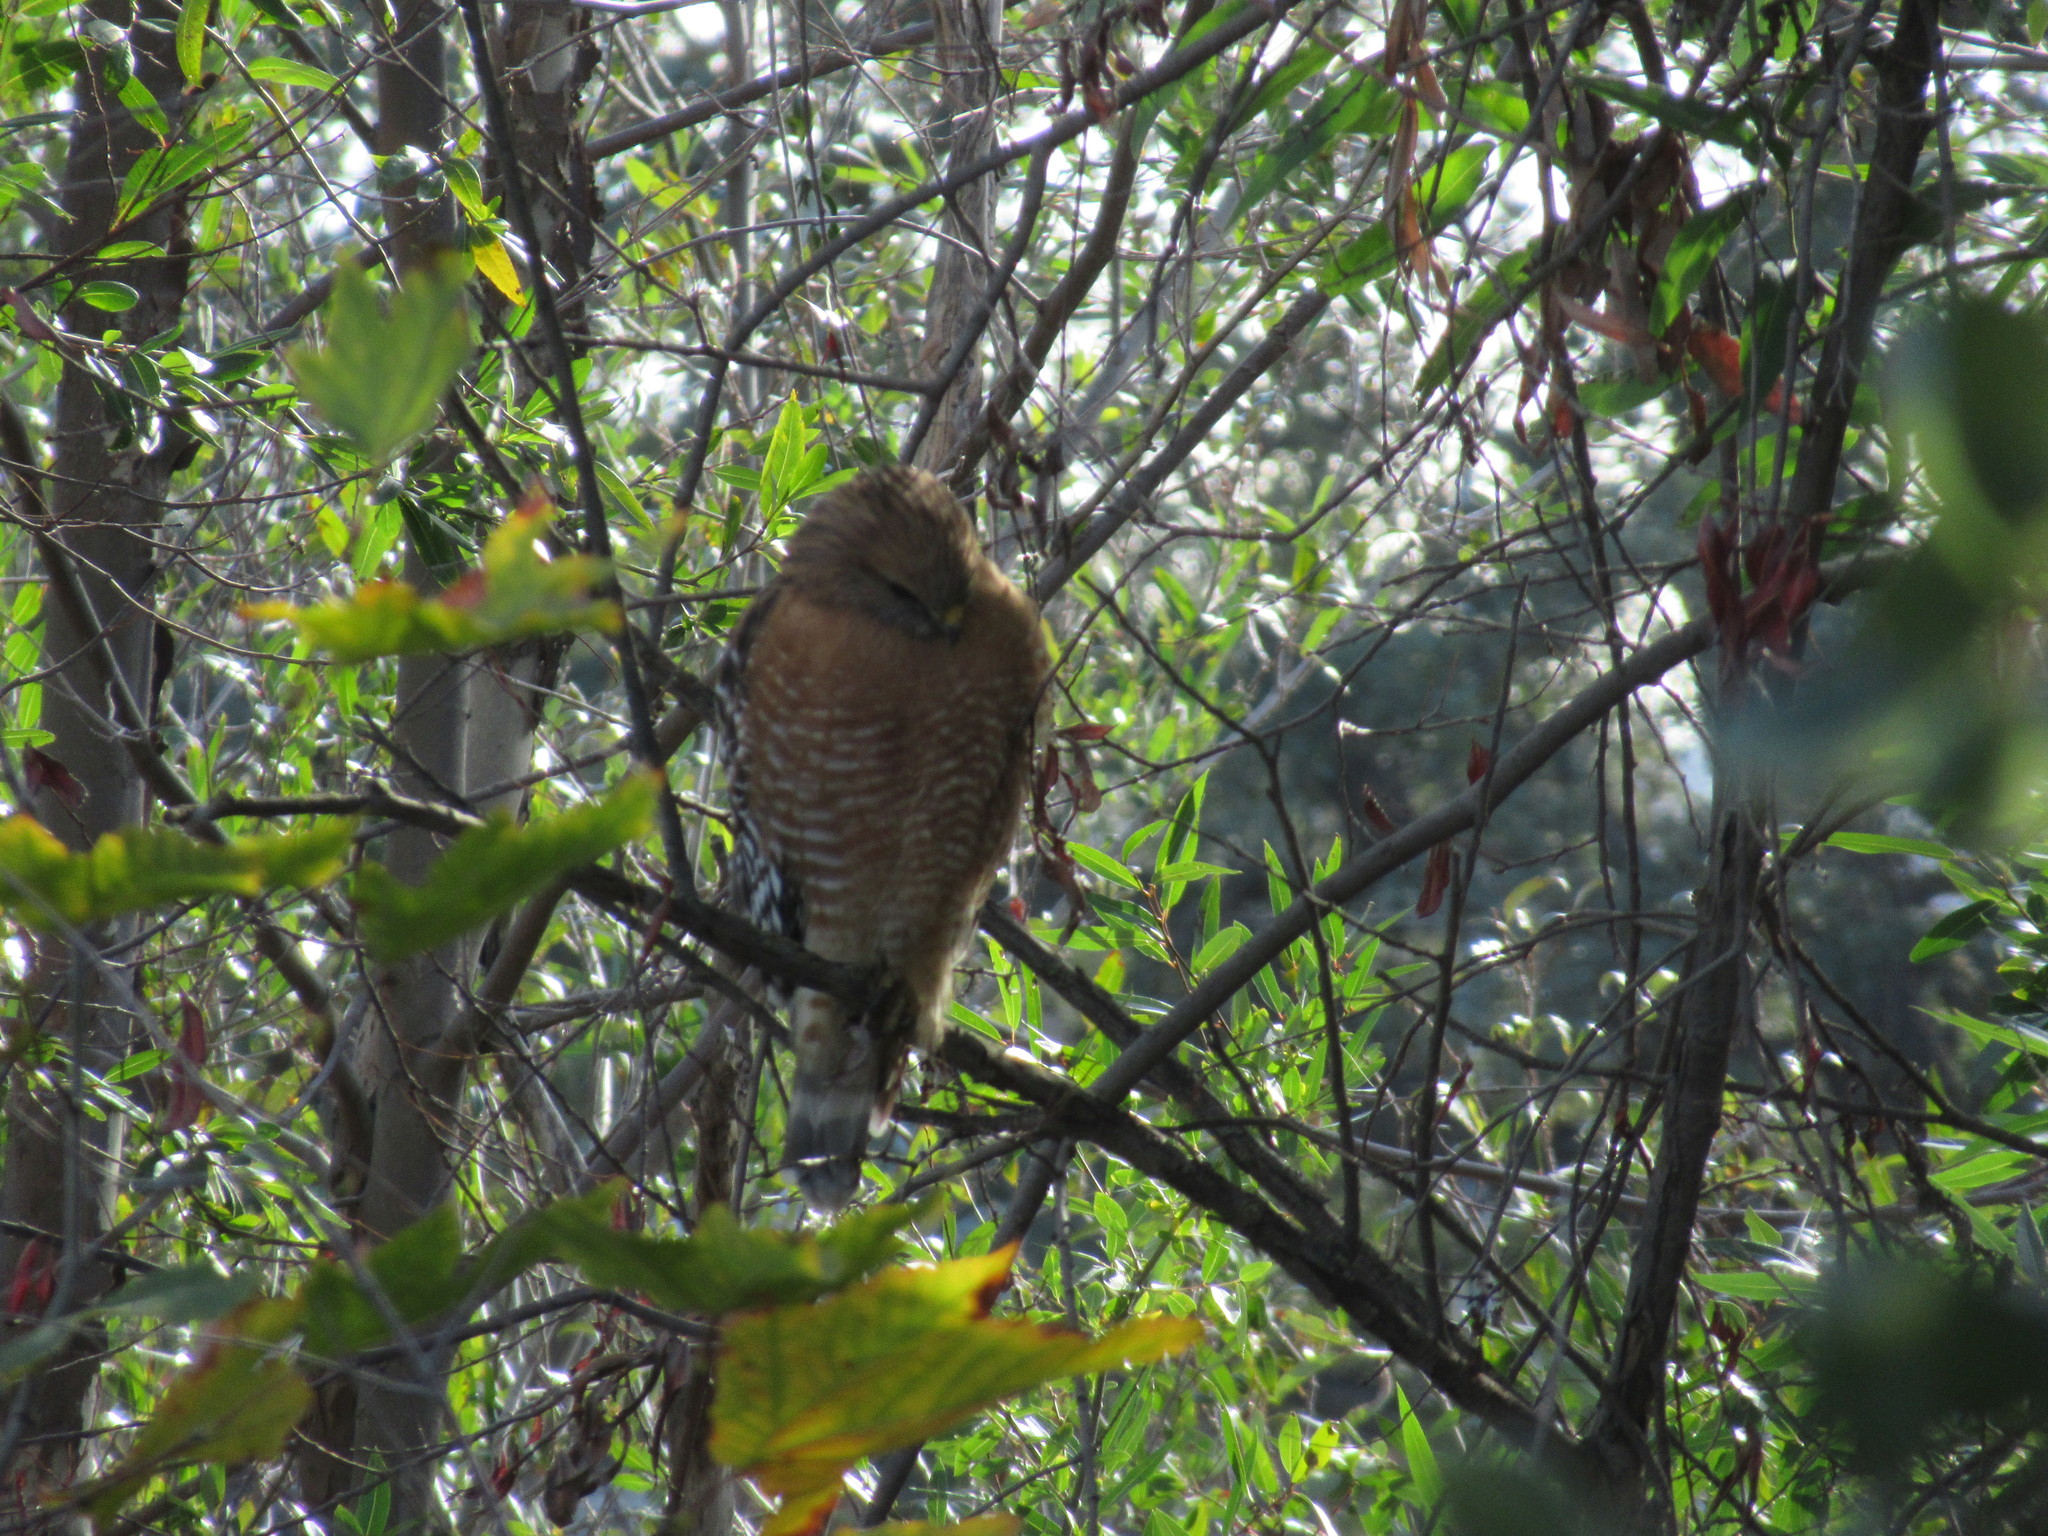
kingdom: Animalia
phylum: Chordata
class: Aves
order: Accipitriformes
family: Accipitridae
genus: Buteo
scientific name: Buteo lineatus
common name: Red-shouldered hawk
